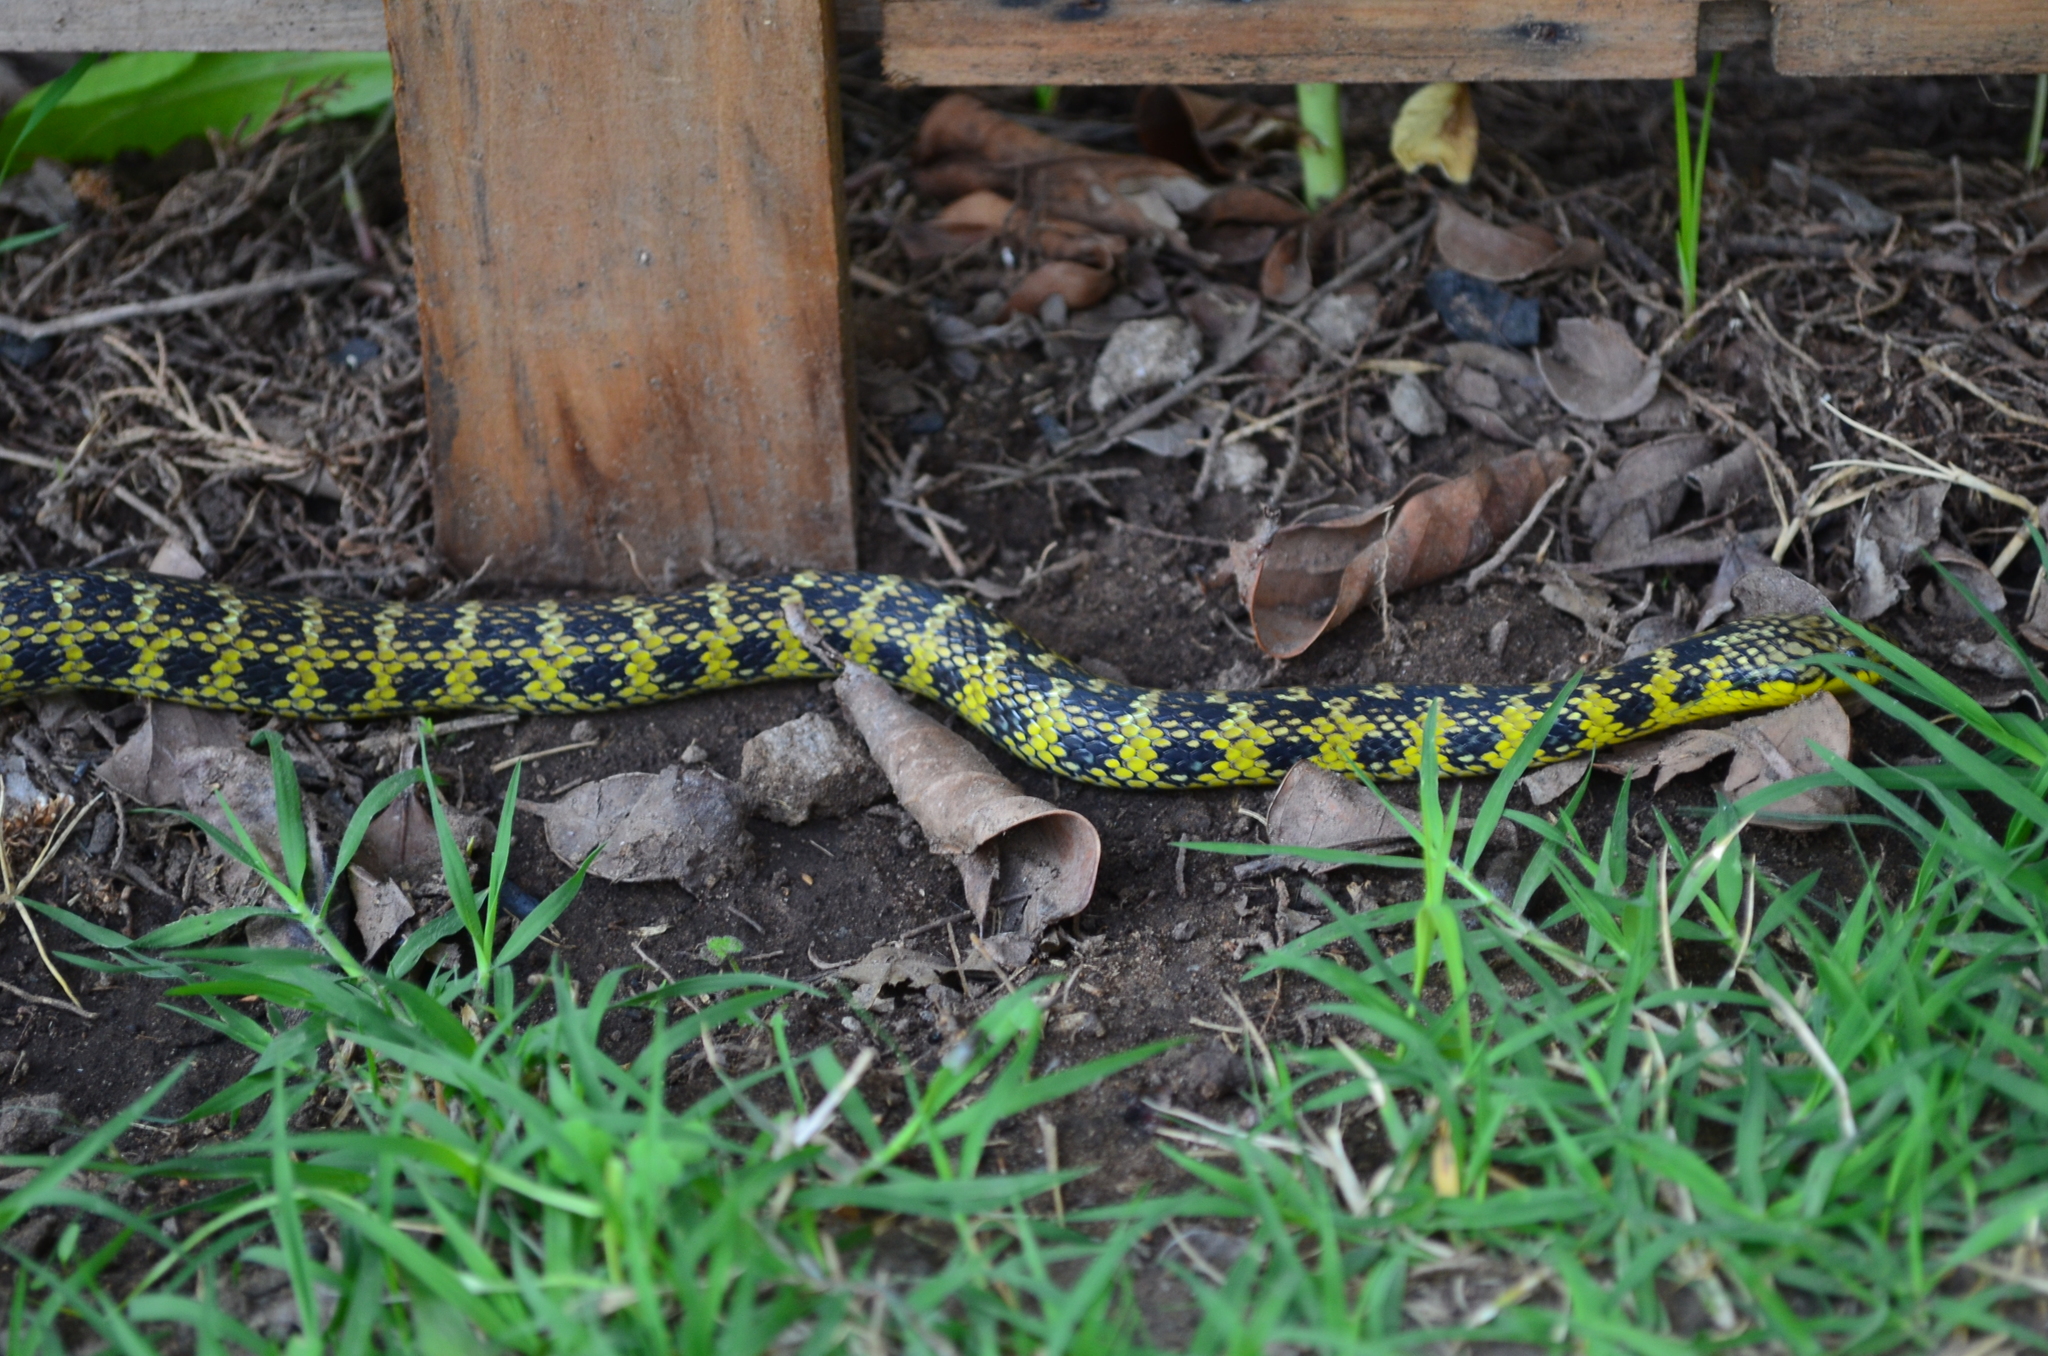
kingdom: Animalia
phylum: Chordata
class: Squamata
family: Colubridae
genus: Erythrolamprus
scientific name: Erythrolamprus poecilogyrus
